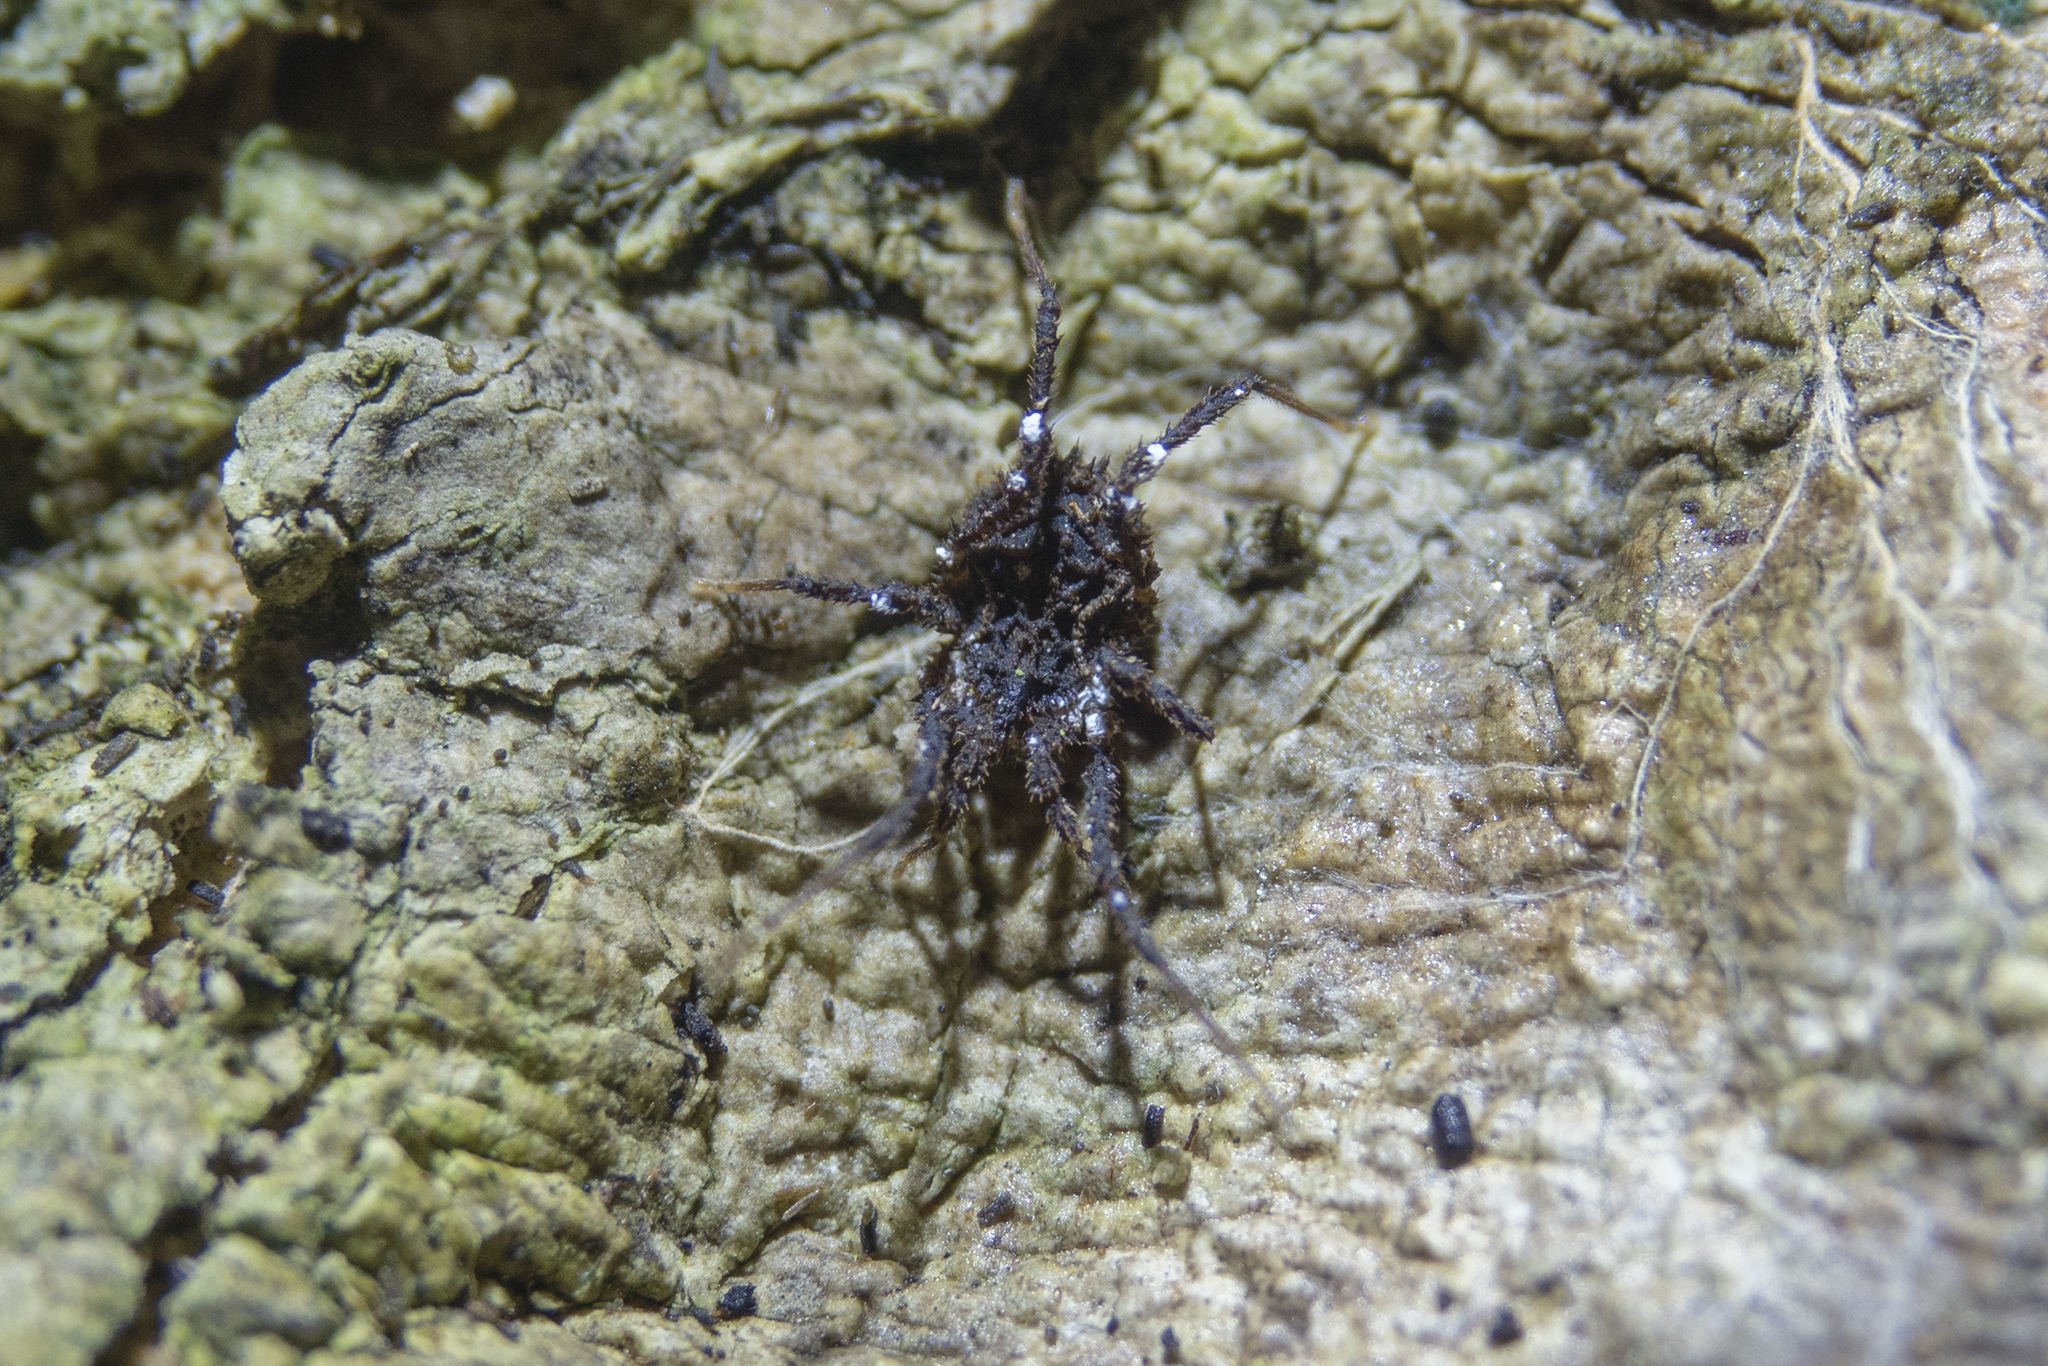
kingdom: Animalia
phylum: Arthropoda
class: Arachnida
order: Opiliones
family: Triaenonychidae
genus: Pristobunus
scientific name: Pristobunus acuminatus
